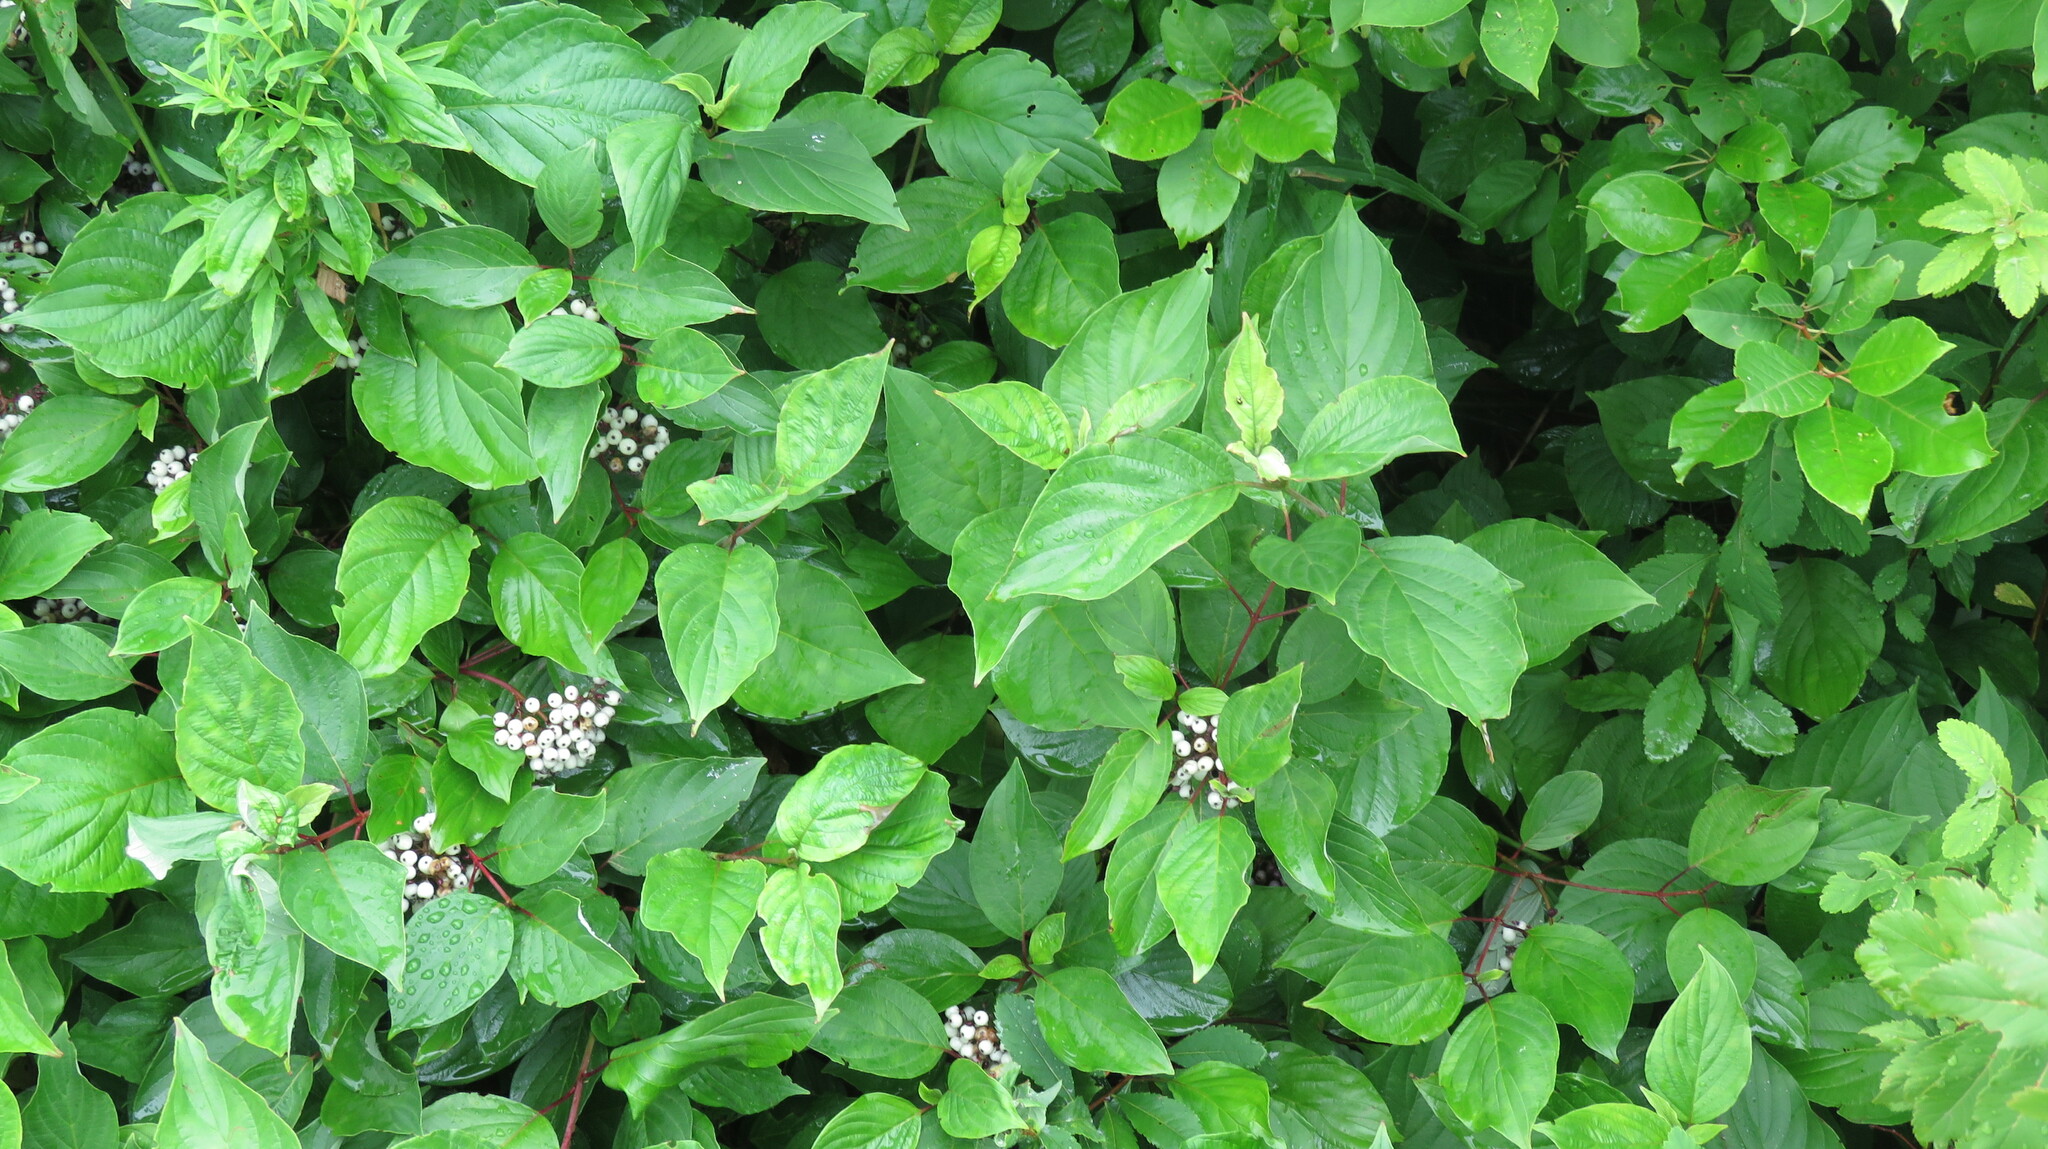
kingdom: Plantae
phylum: Tracheophyta
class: Magnoliopsida
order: Cornales
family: Cornaceae
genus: Cornus
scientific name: Cornus sericea
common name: Red-osier dogwood
